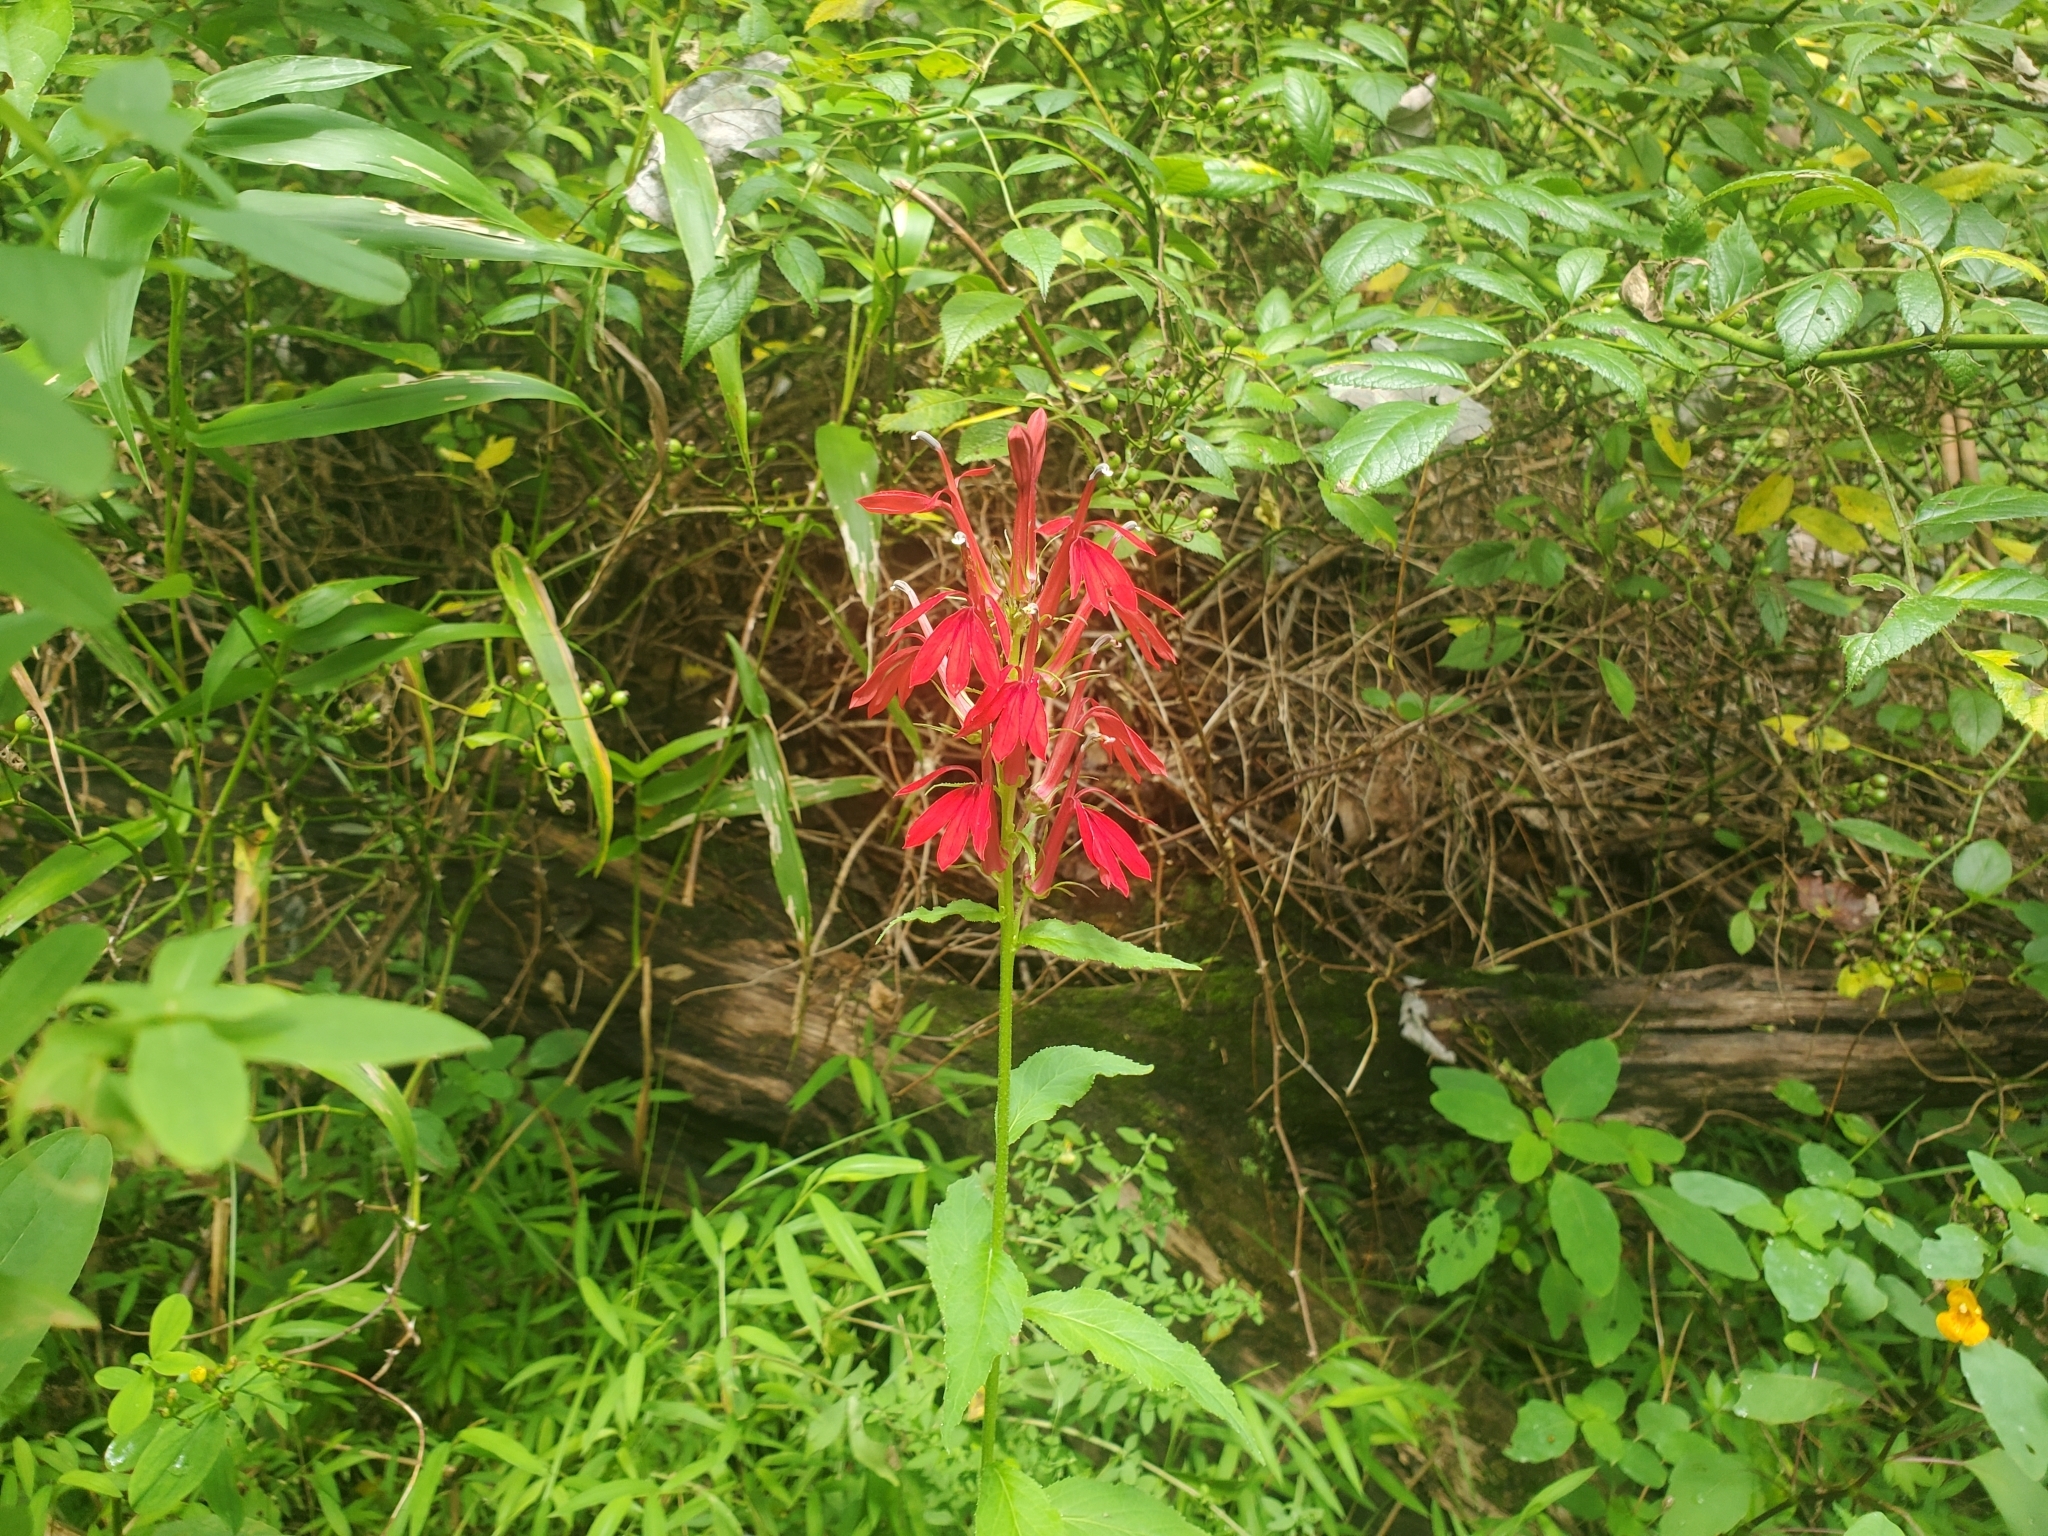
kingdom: Plantae
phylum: Tracheophyta
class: Magnoliopsida
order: Asterales
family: Campanulaceae
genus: Lobelia
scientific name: Lobelia cardinalis
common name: Cardinal flower
